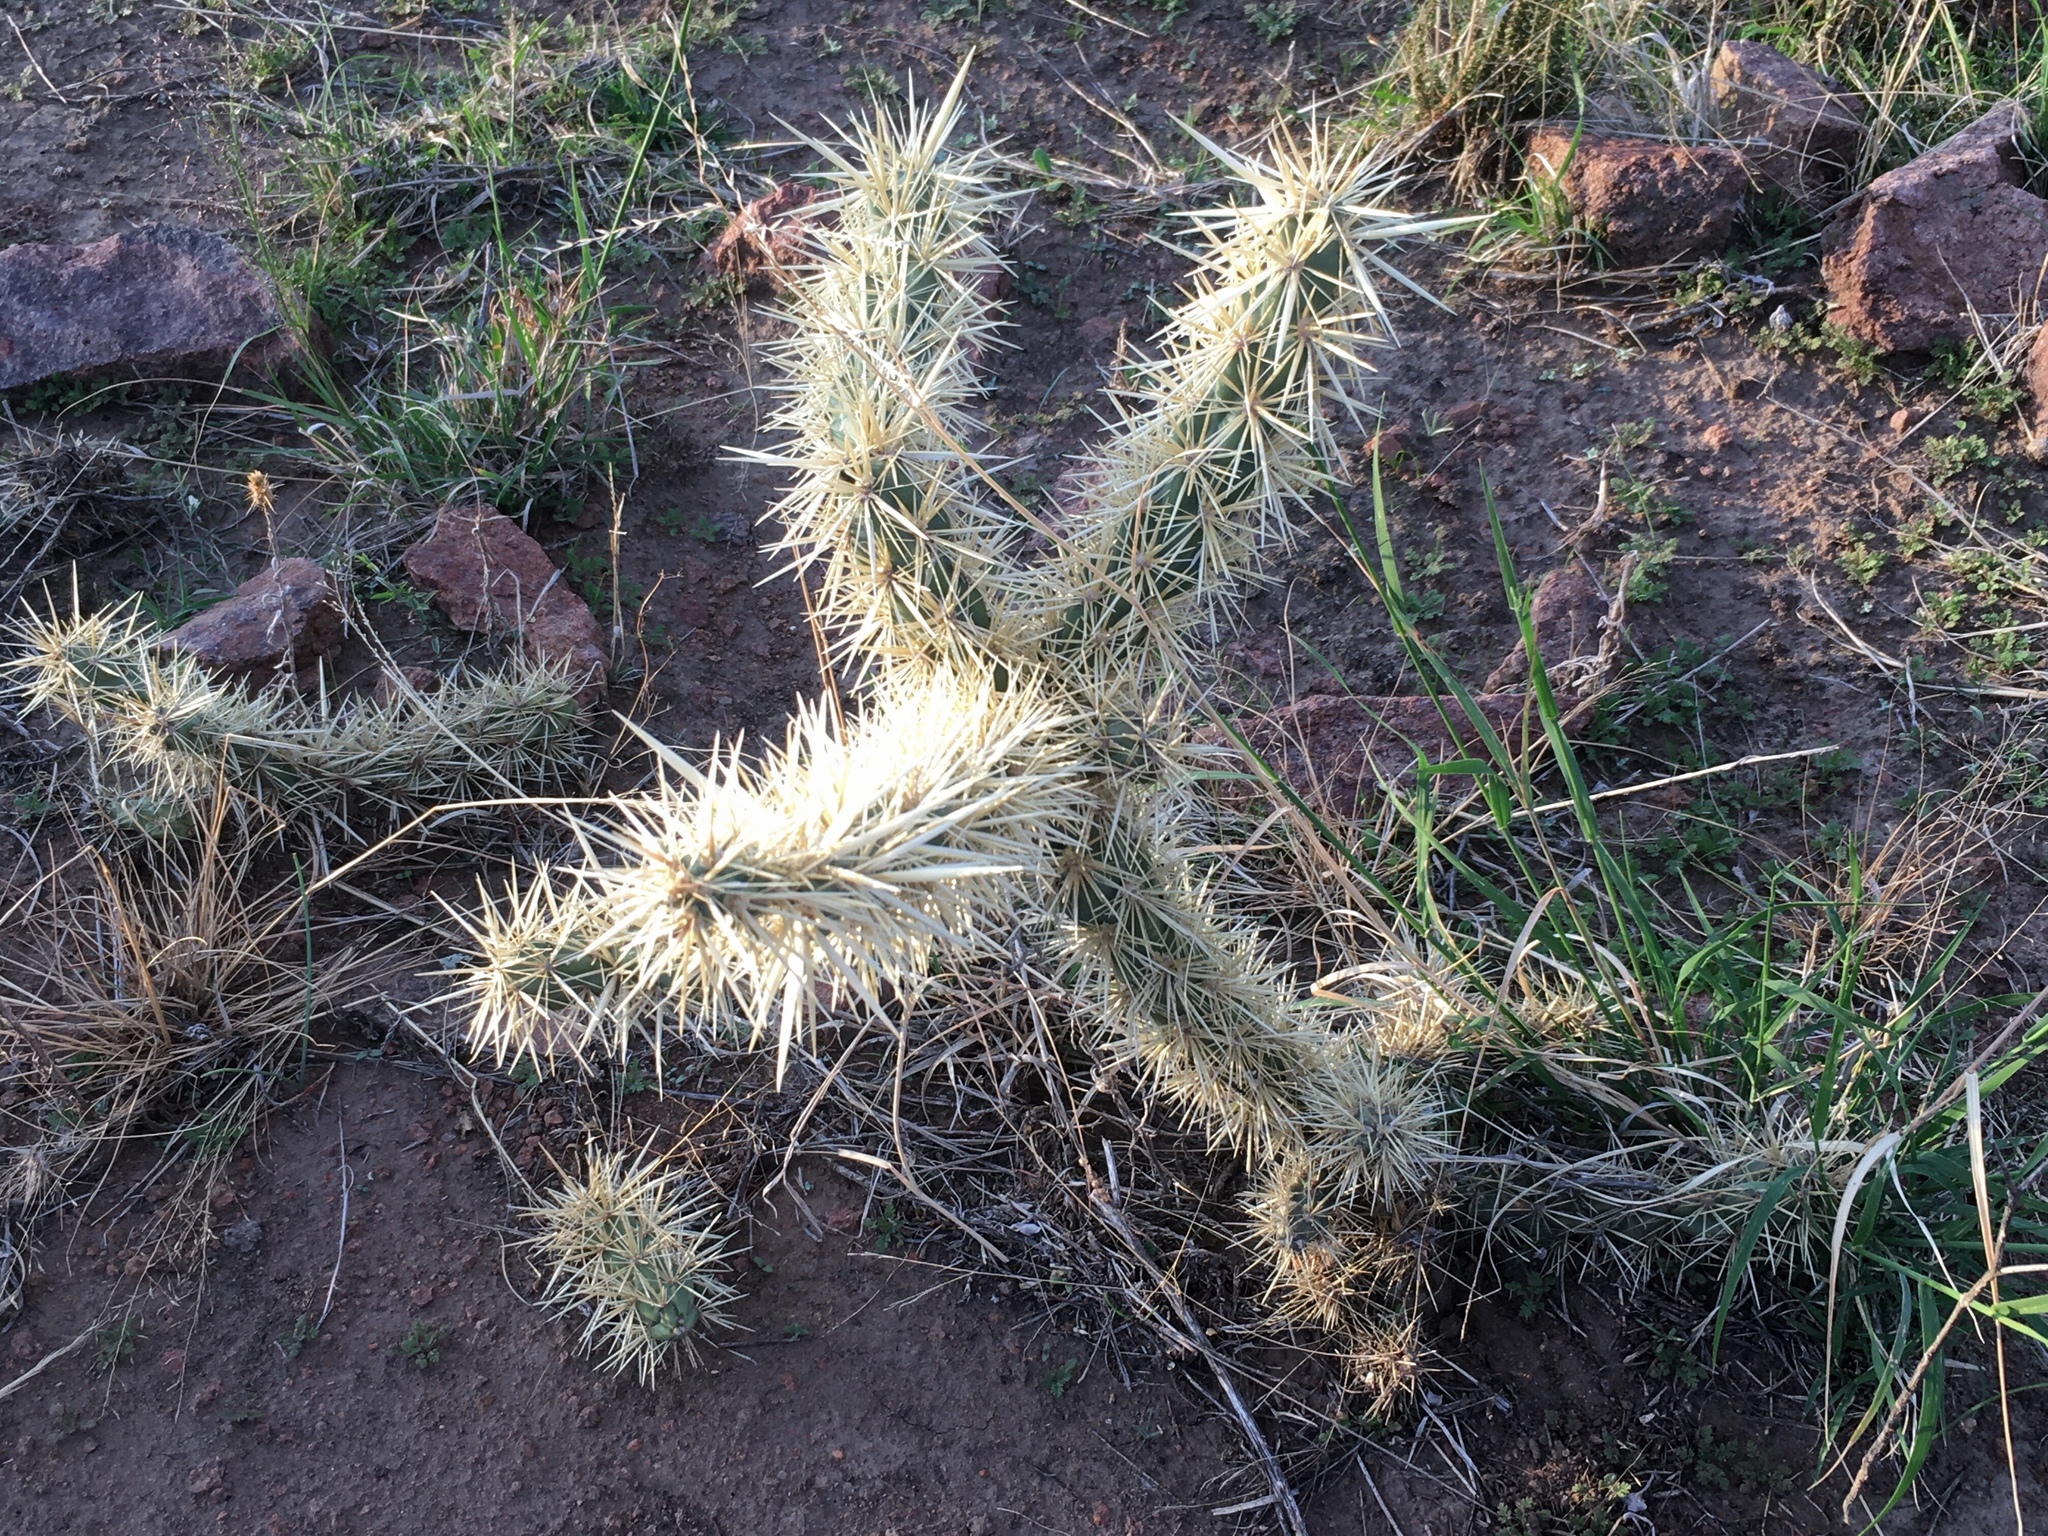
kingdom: Plantae
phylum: Tracheophyta
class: Magnoliopsida
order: Caryophyllales
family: Cactaceae
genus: Cylindropuntia
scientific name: Cylindropuntia tunicata
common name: Sheathed cholla
